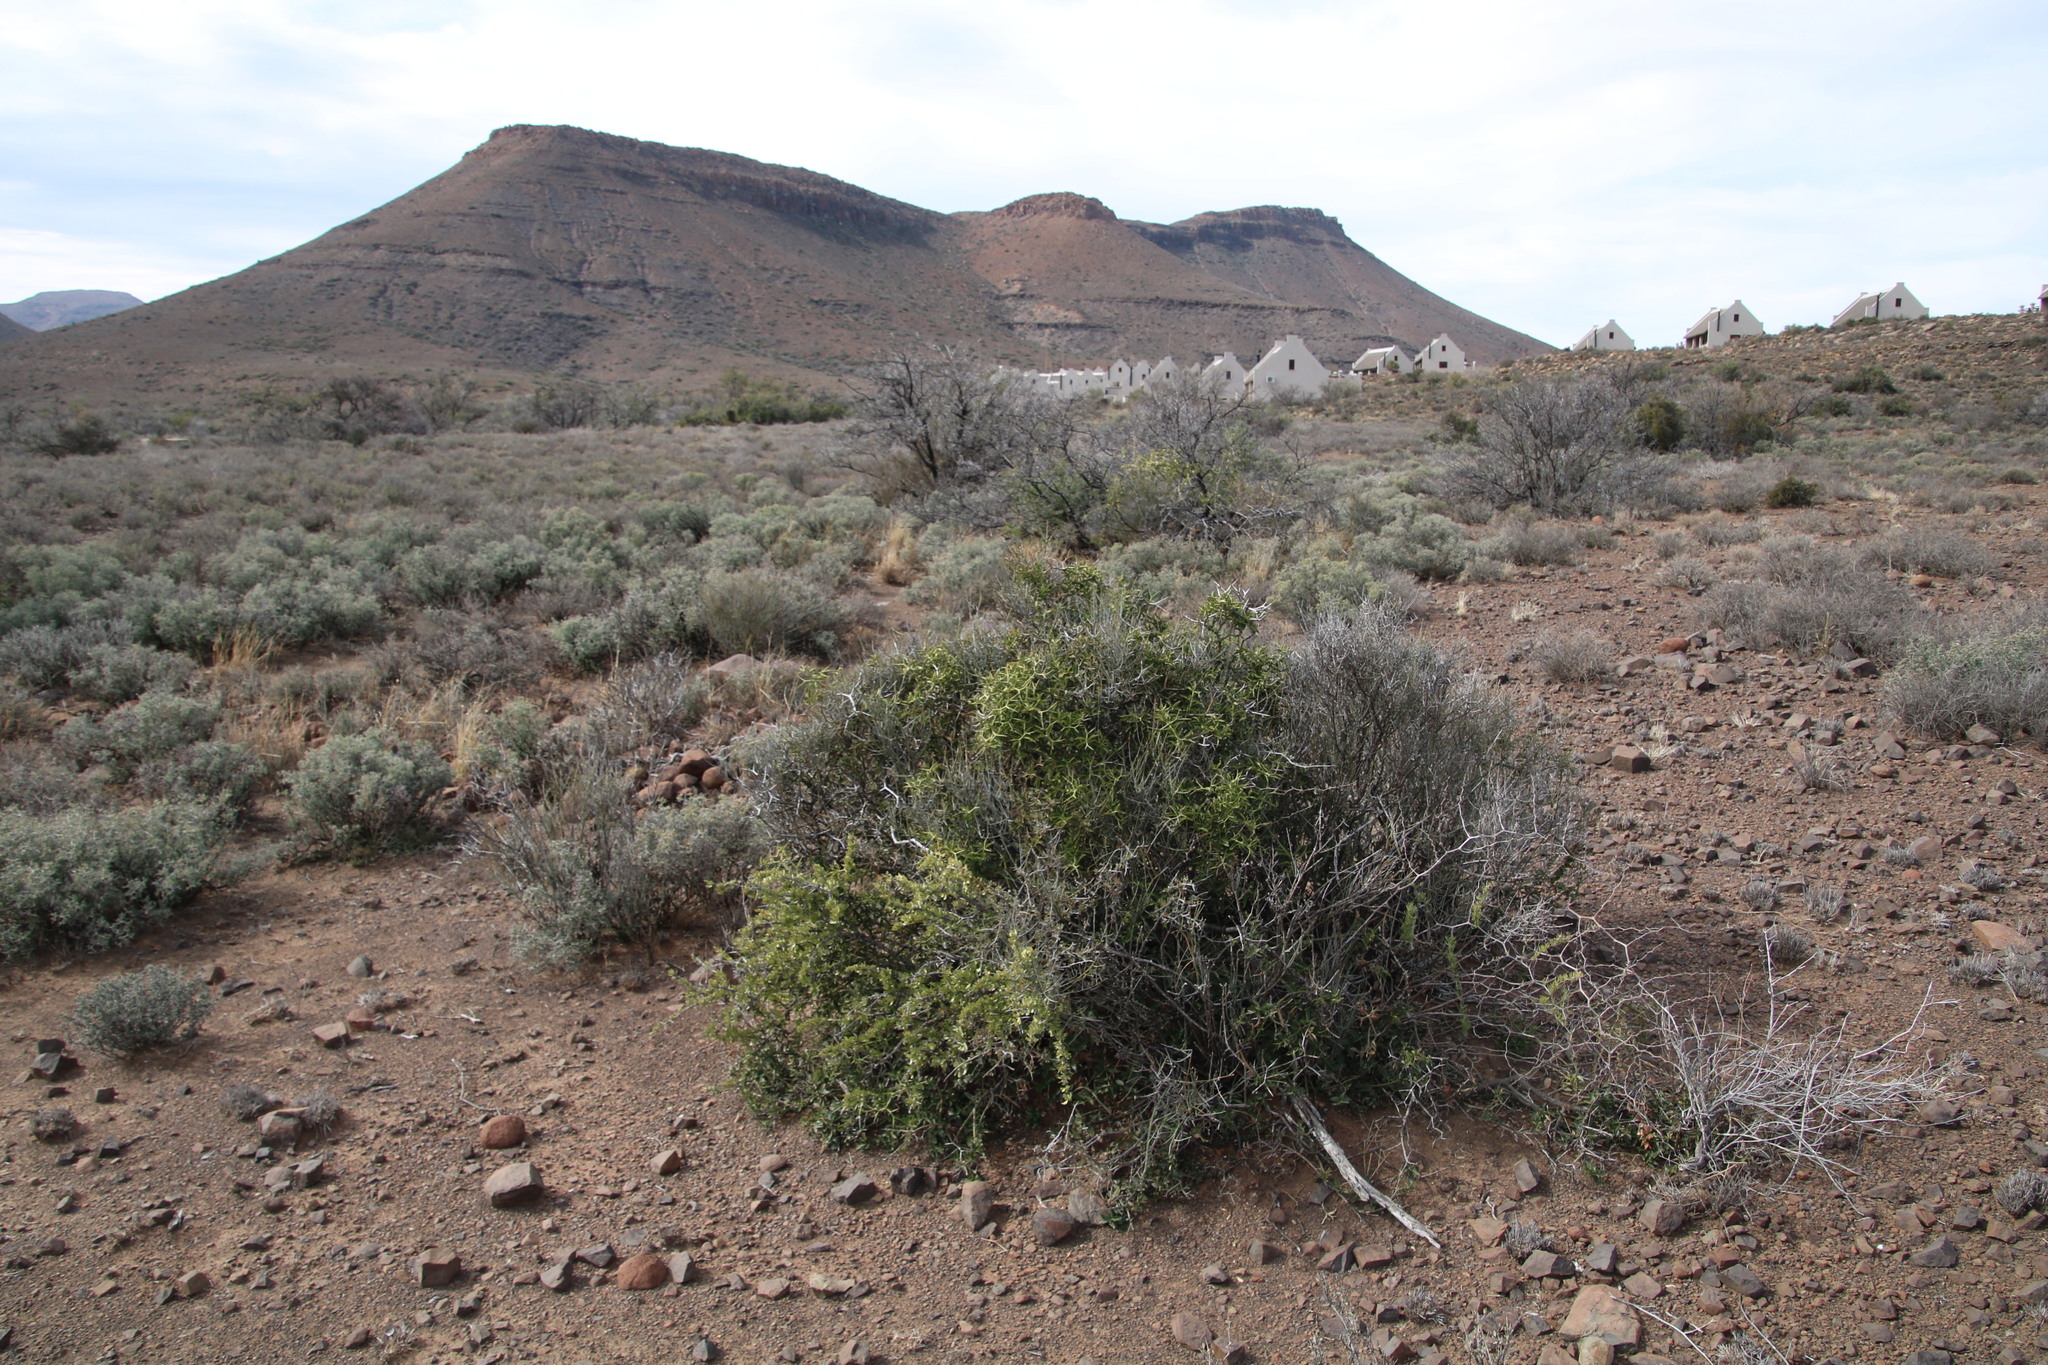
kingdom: Plantae
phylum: Tracheophyta
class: Magnoliopsida
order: Gentianales
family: Apocynaceae
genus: Carissa
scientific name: Carissa haematocarpa
